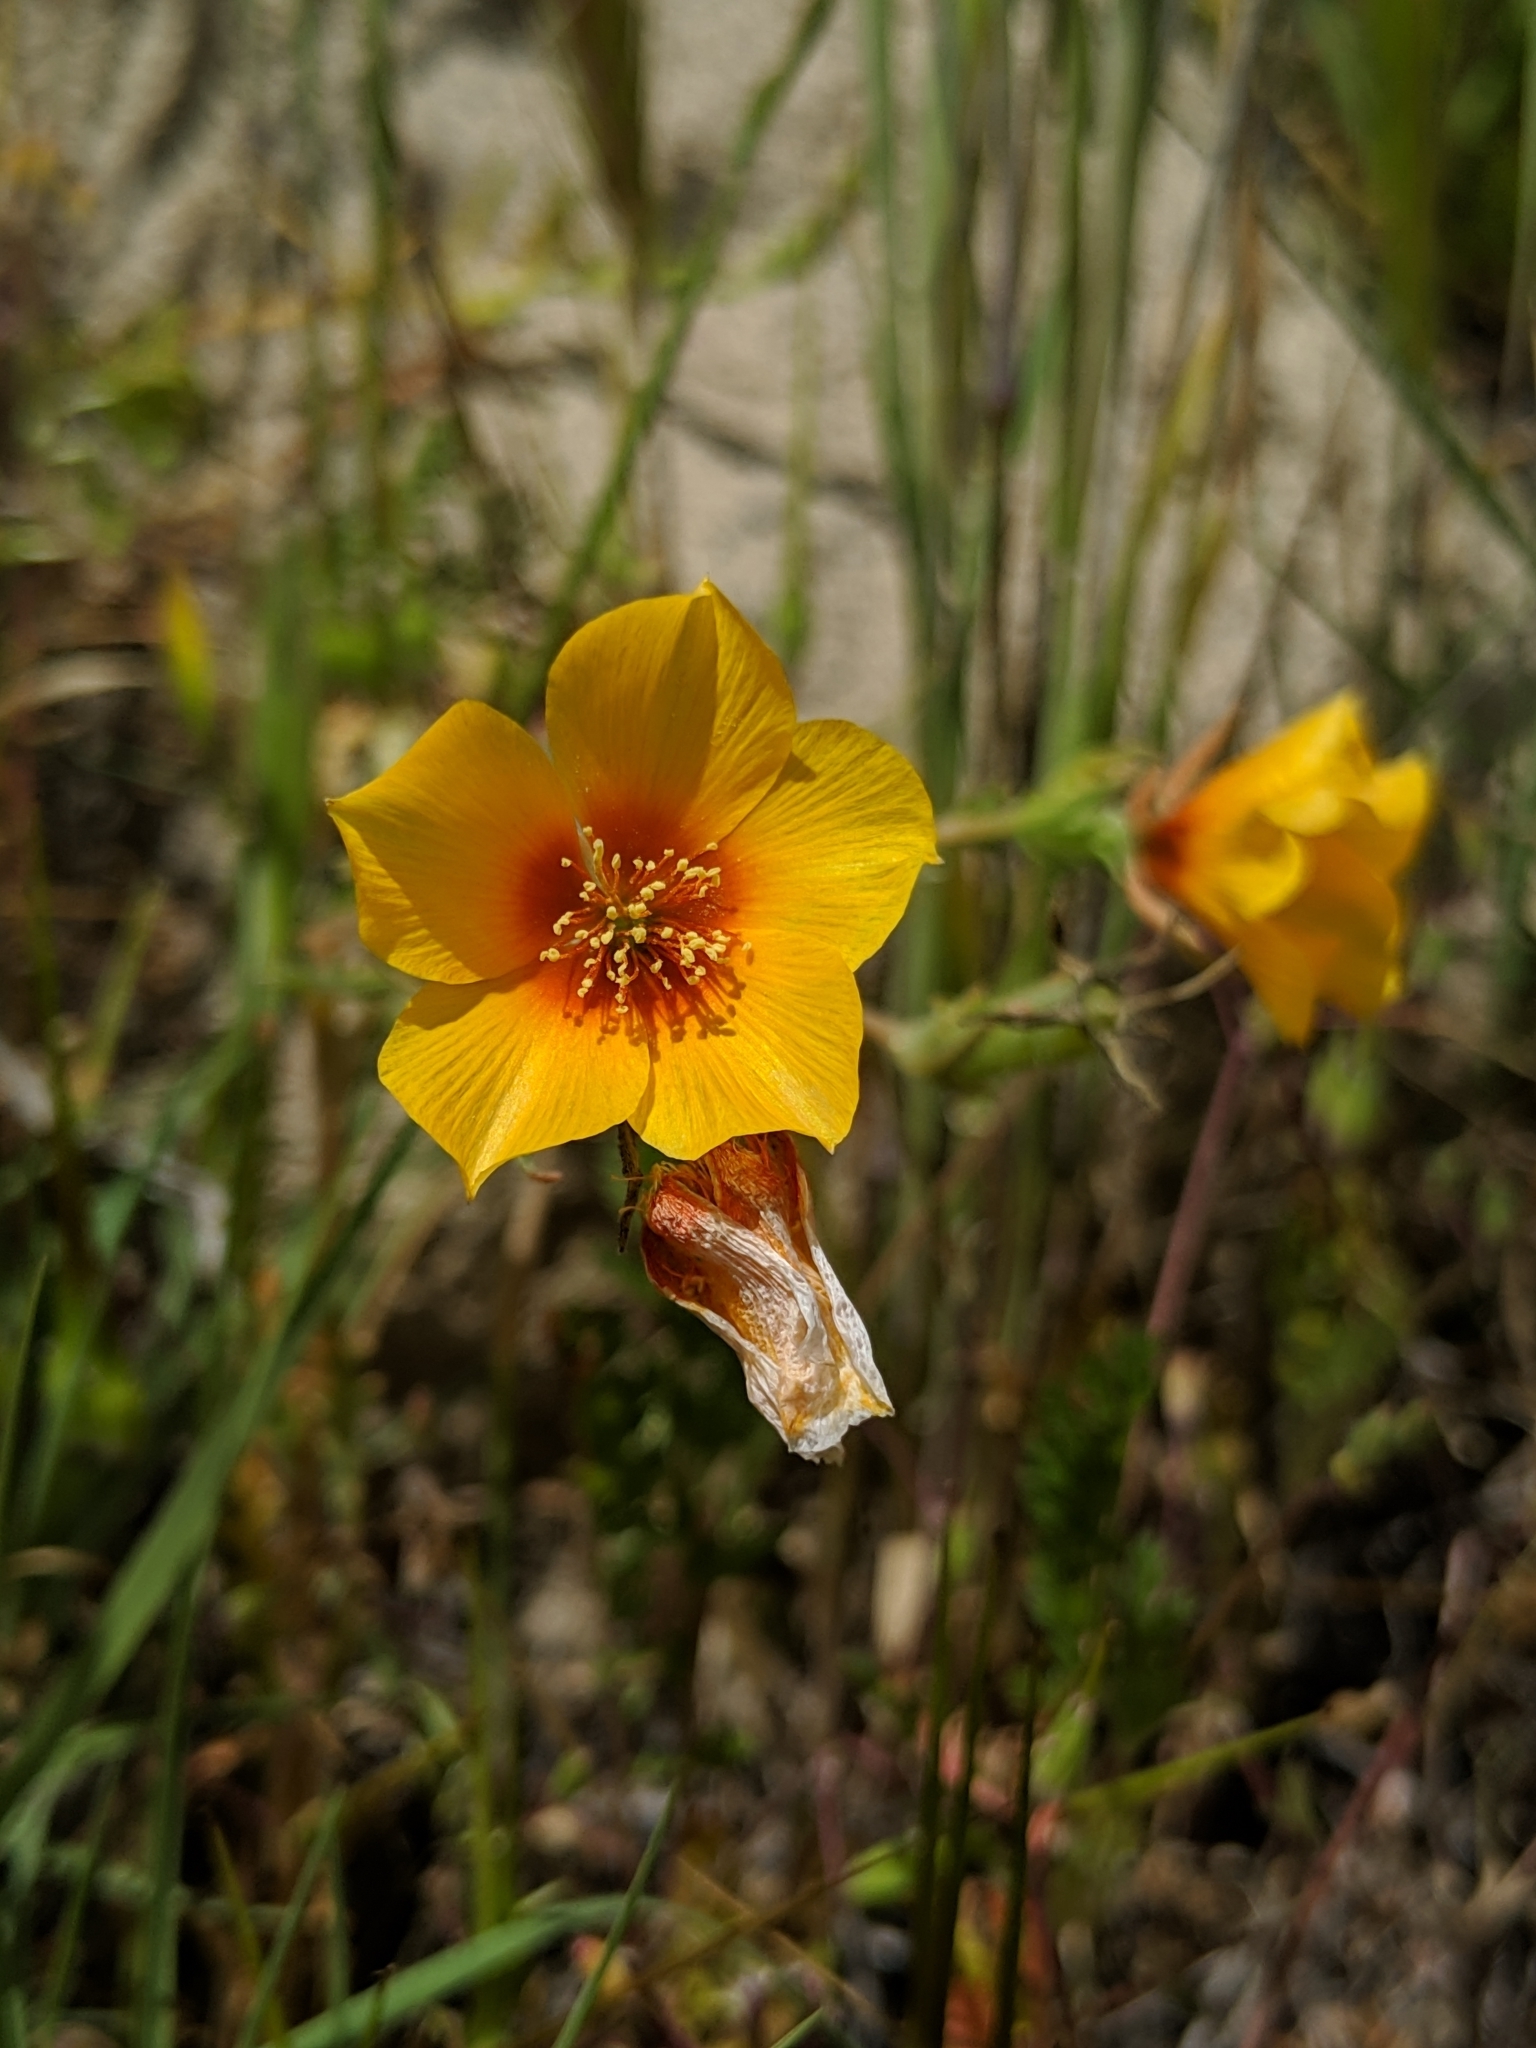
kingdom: Plantae
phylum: Tracheophyta
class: Magnoliopsida
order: Cornales
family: Loasaceae
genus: Mentzelia
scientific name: Mentzelia pectinata
